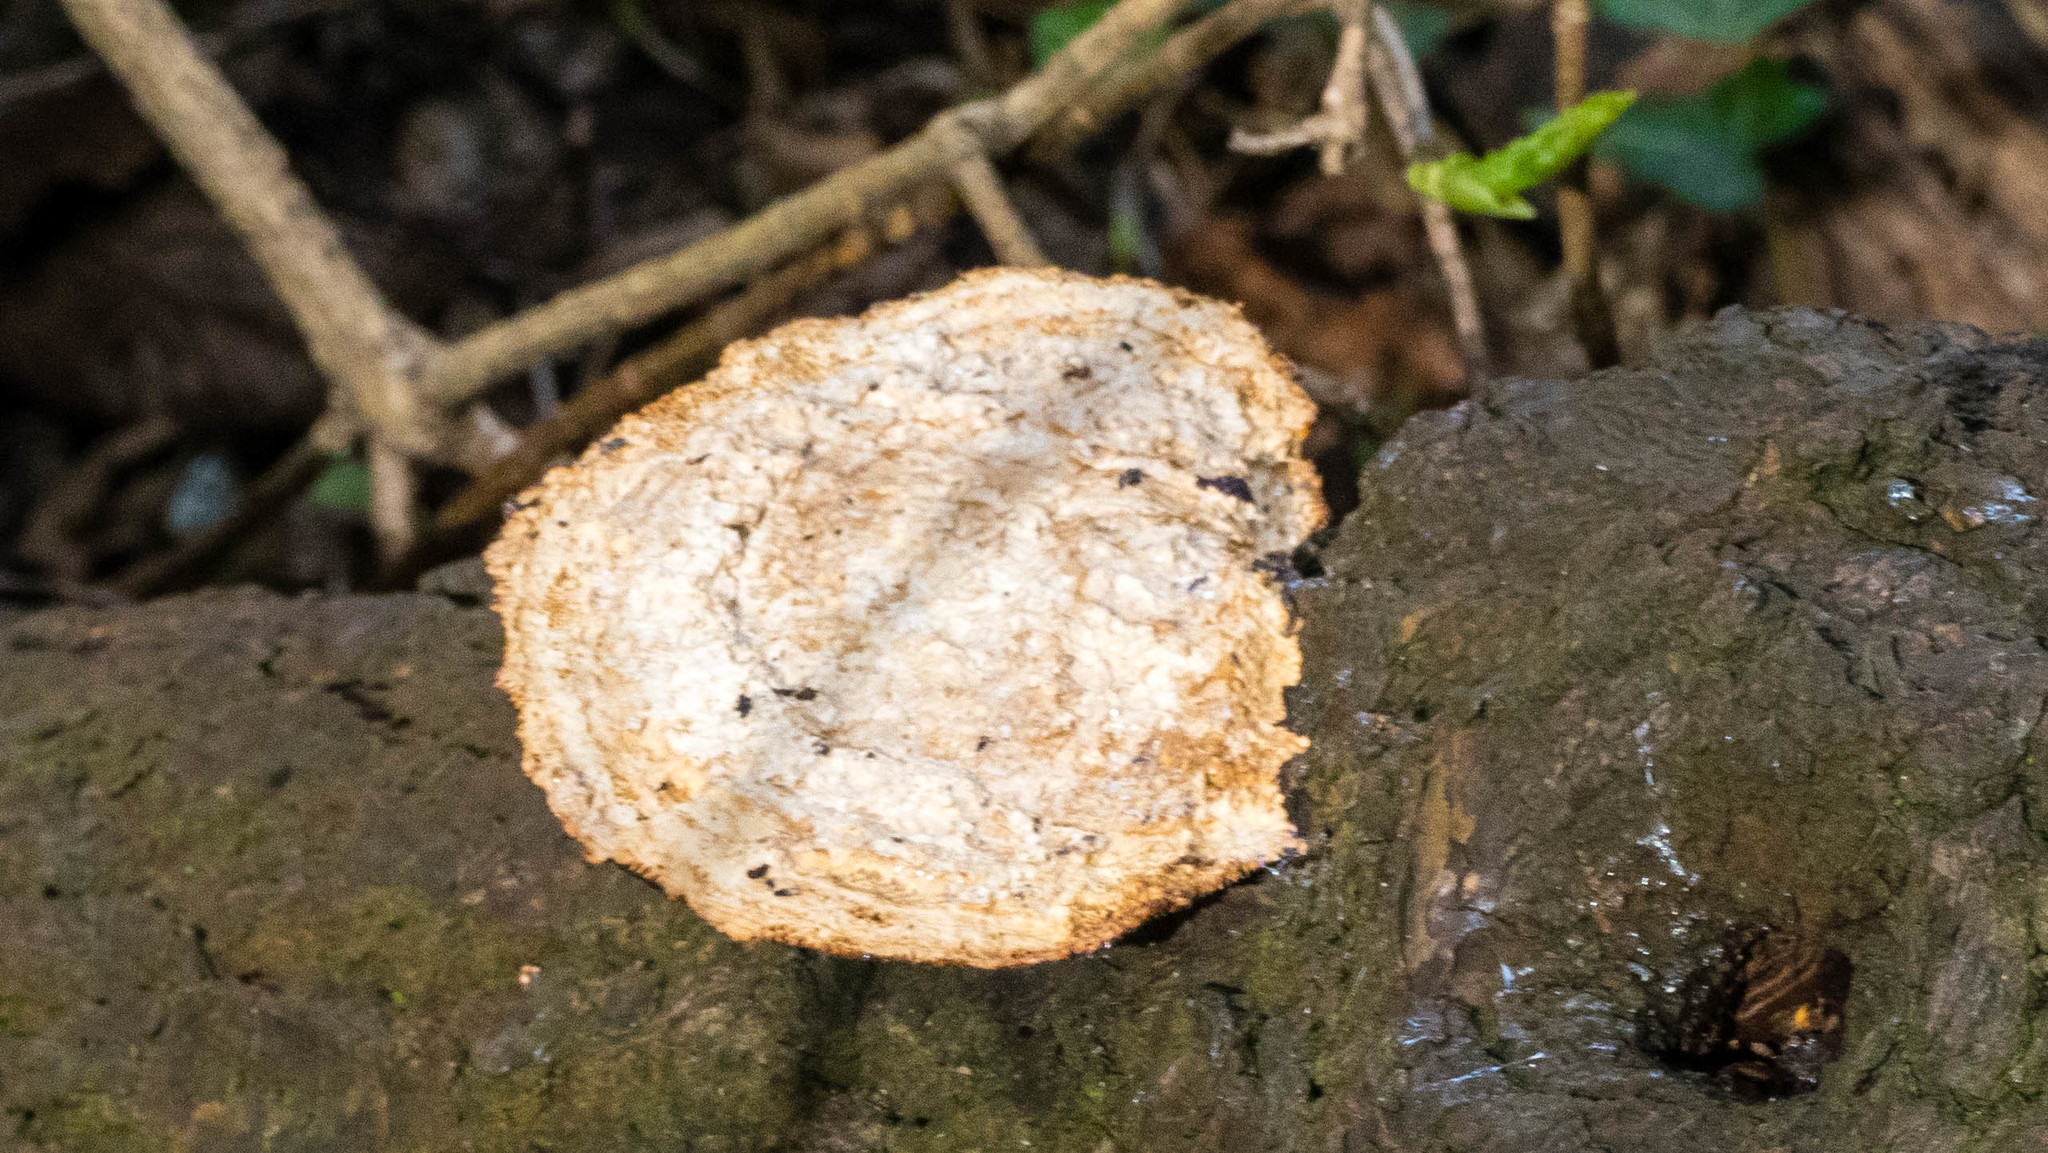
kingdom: Fungi
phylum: Basidiomycota
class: Agaricomycetes
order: Polyporales
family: Polyporaceae
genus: Daedaleopsis
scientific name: Daedaleopsis confragosa
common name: Blushing bracket
